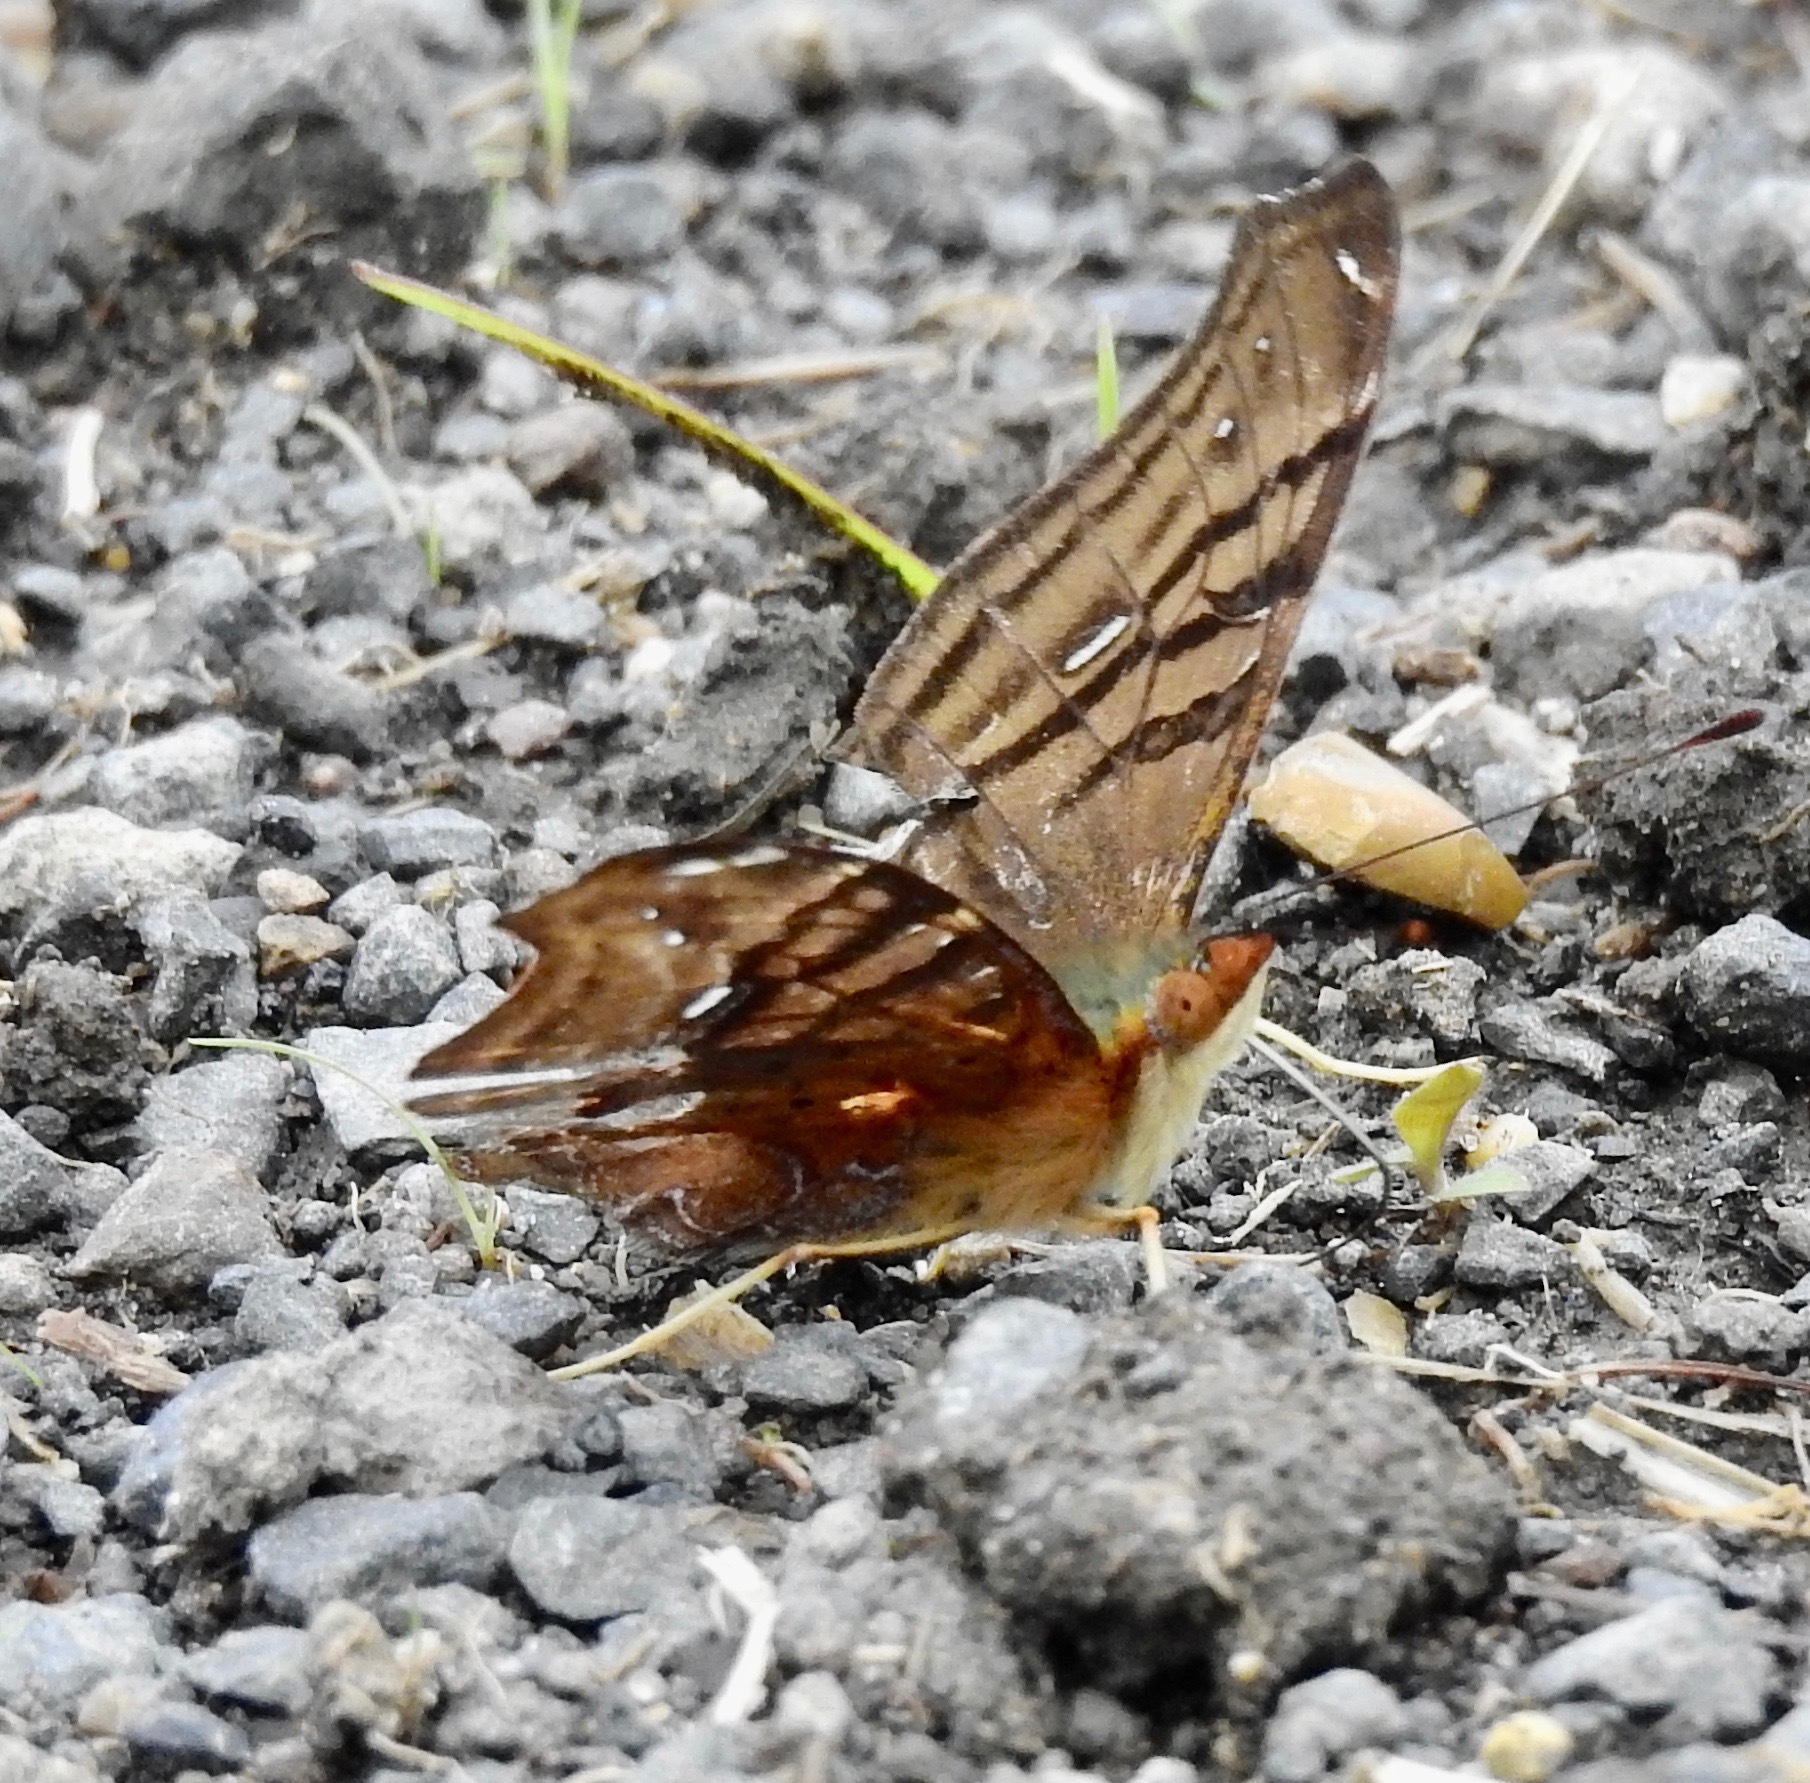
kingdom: Animalia
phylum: Arthropoda
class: Insecta
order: Lepidoptera
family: Nymphalidae
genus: Hypanartia
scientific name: Hypanartia dione
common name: Banded mapwing
